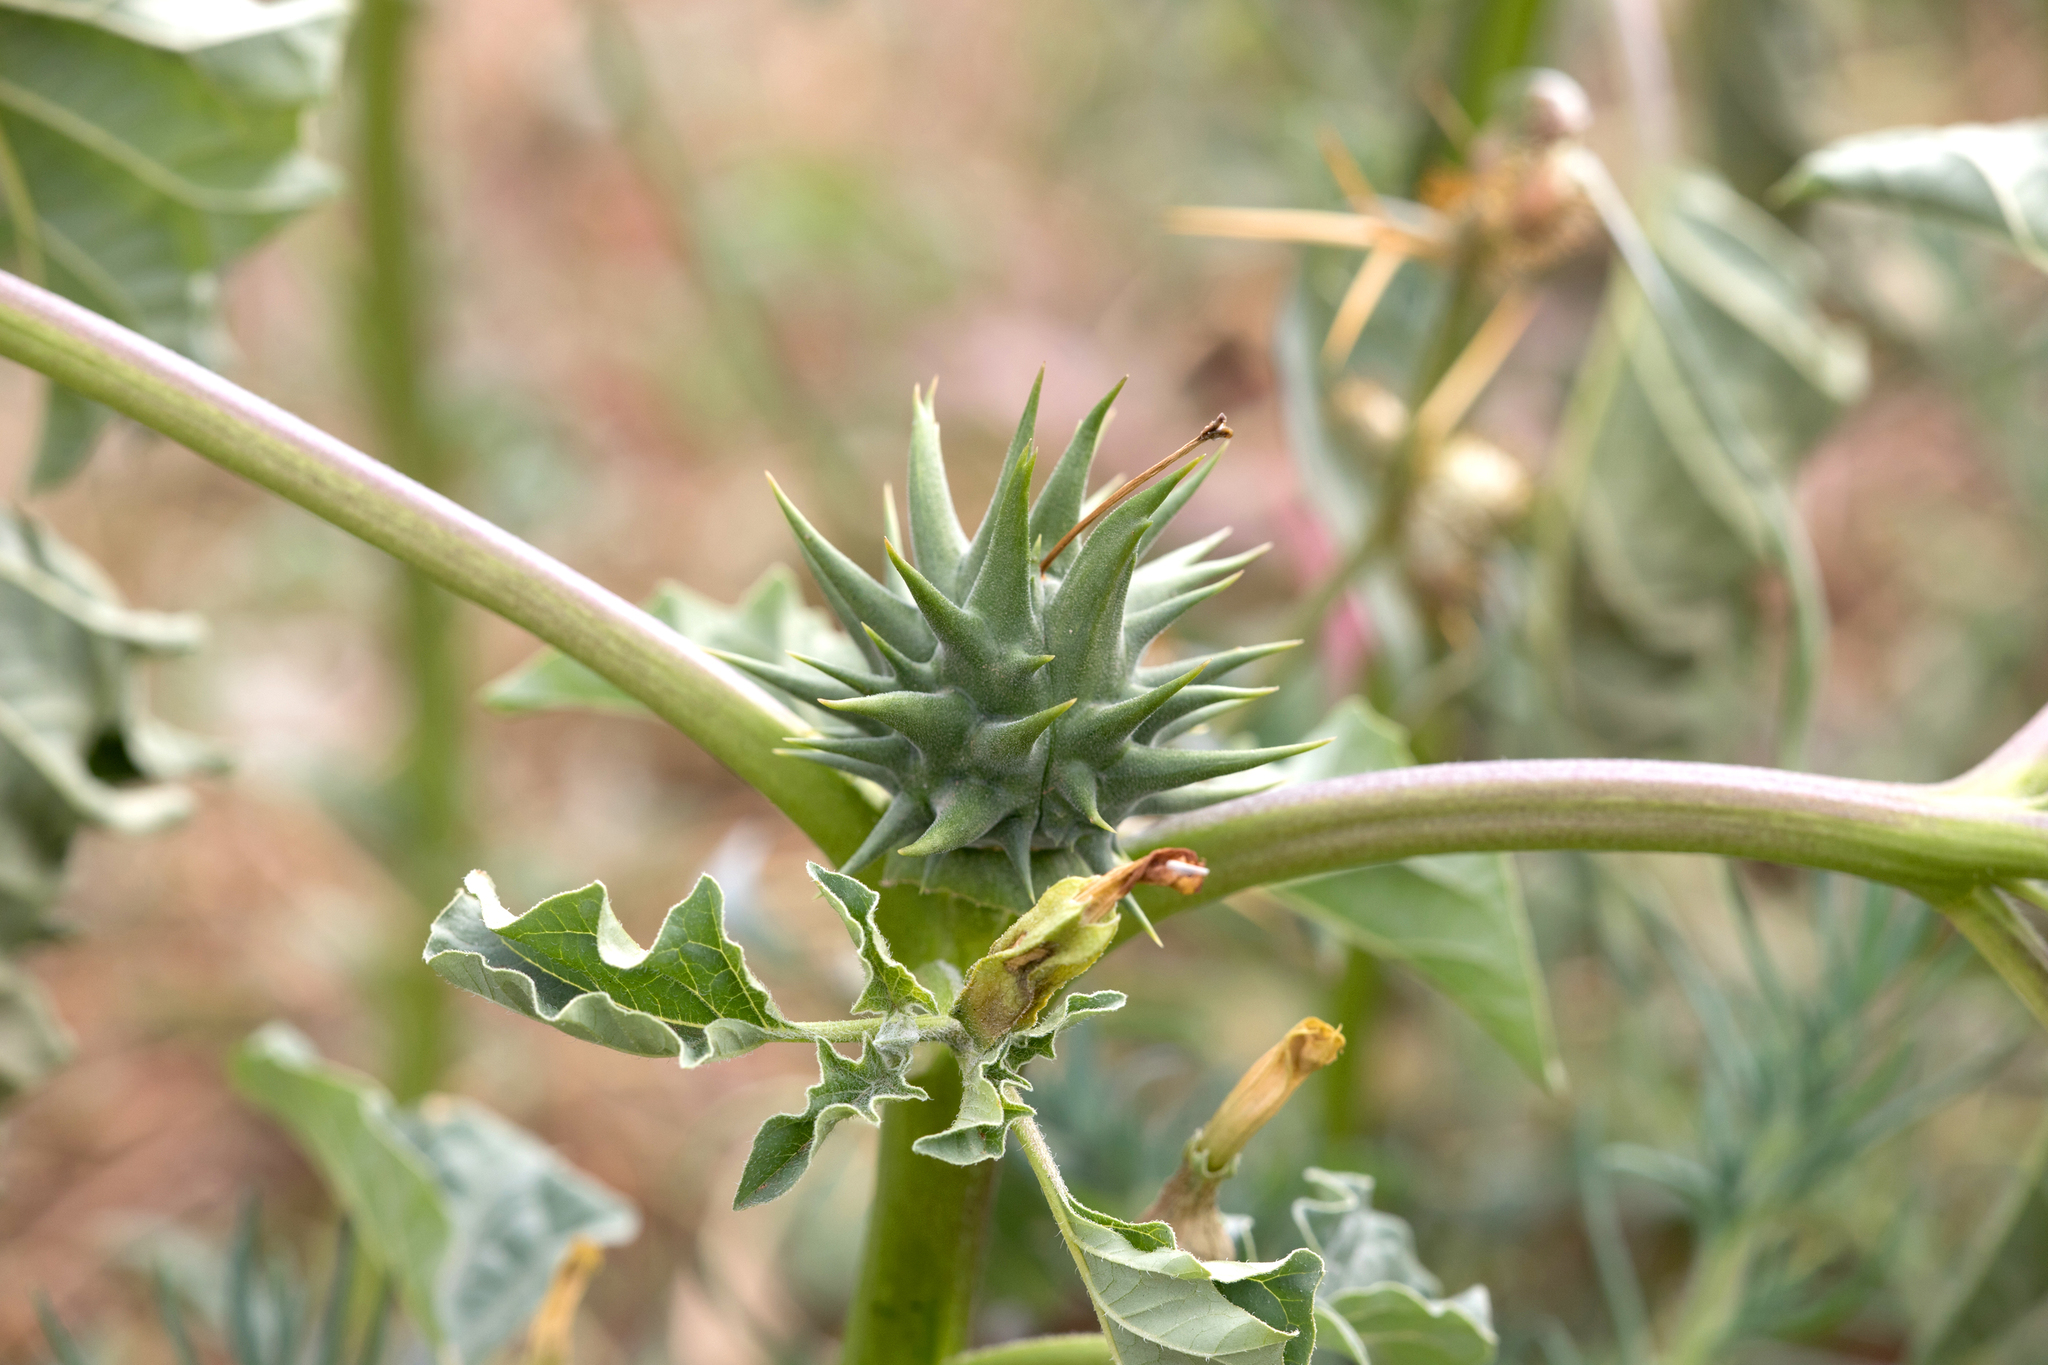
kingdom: Plantae
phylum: Tracheophyta
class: Magnoliopsida
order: Solanales
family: Solanaceae
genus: Datura
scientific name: Datura ferox
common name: Angel's-trumpets
